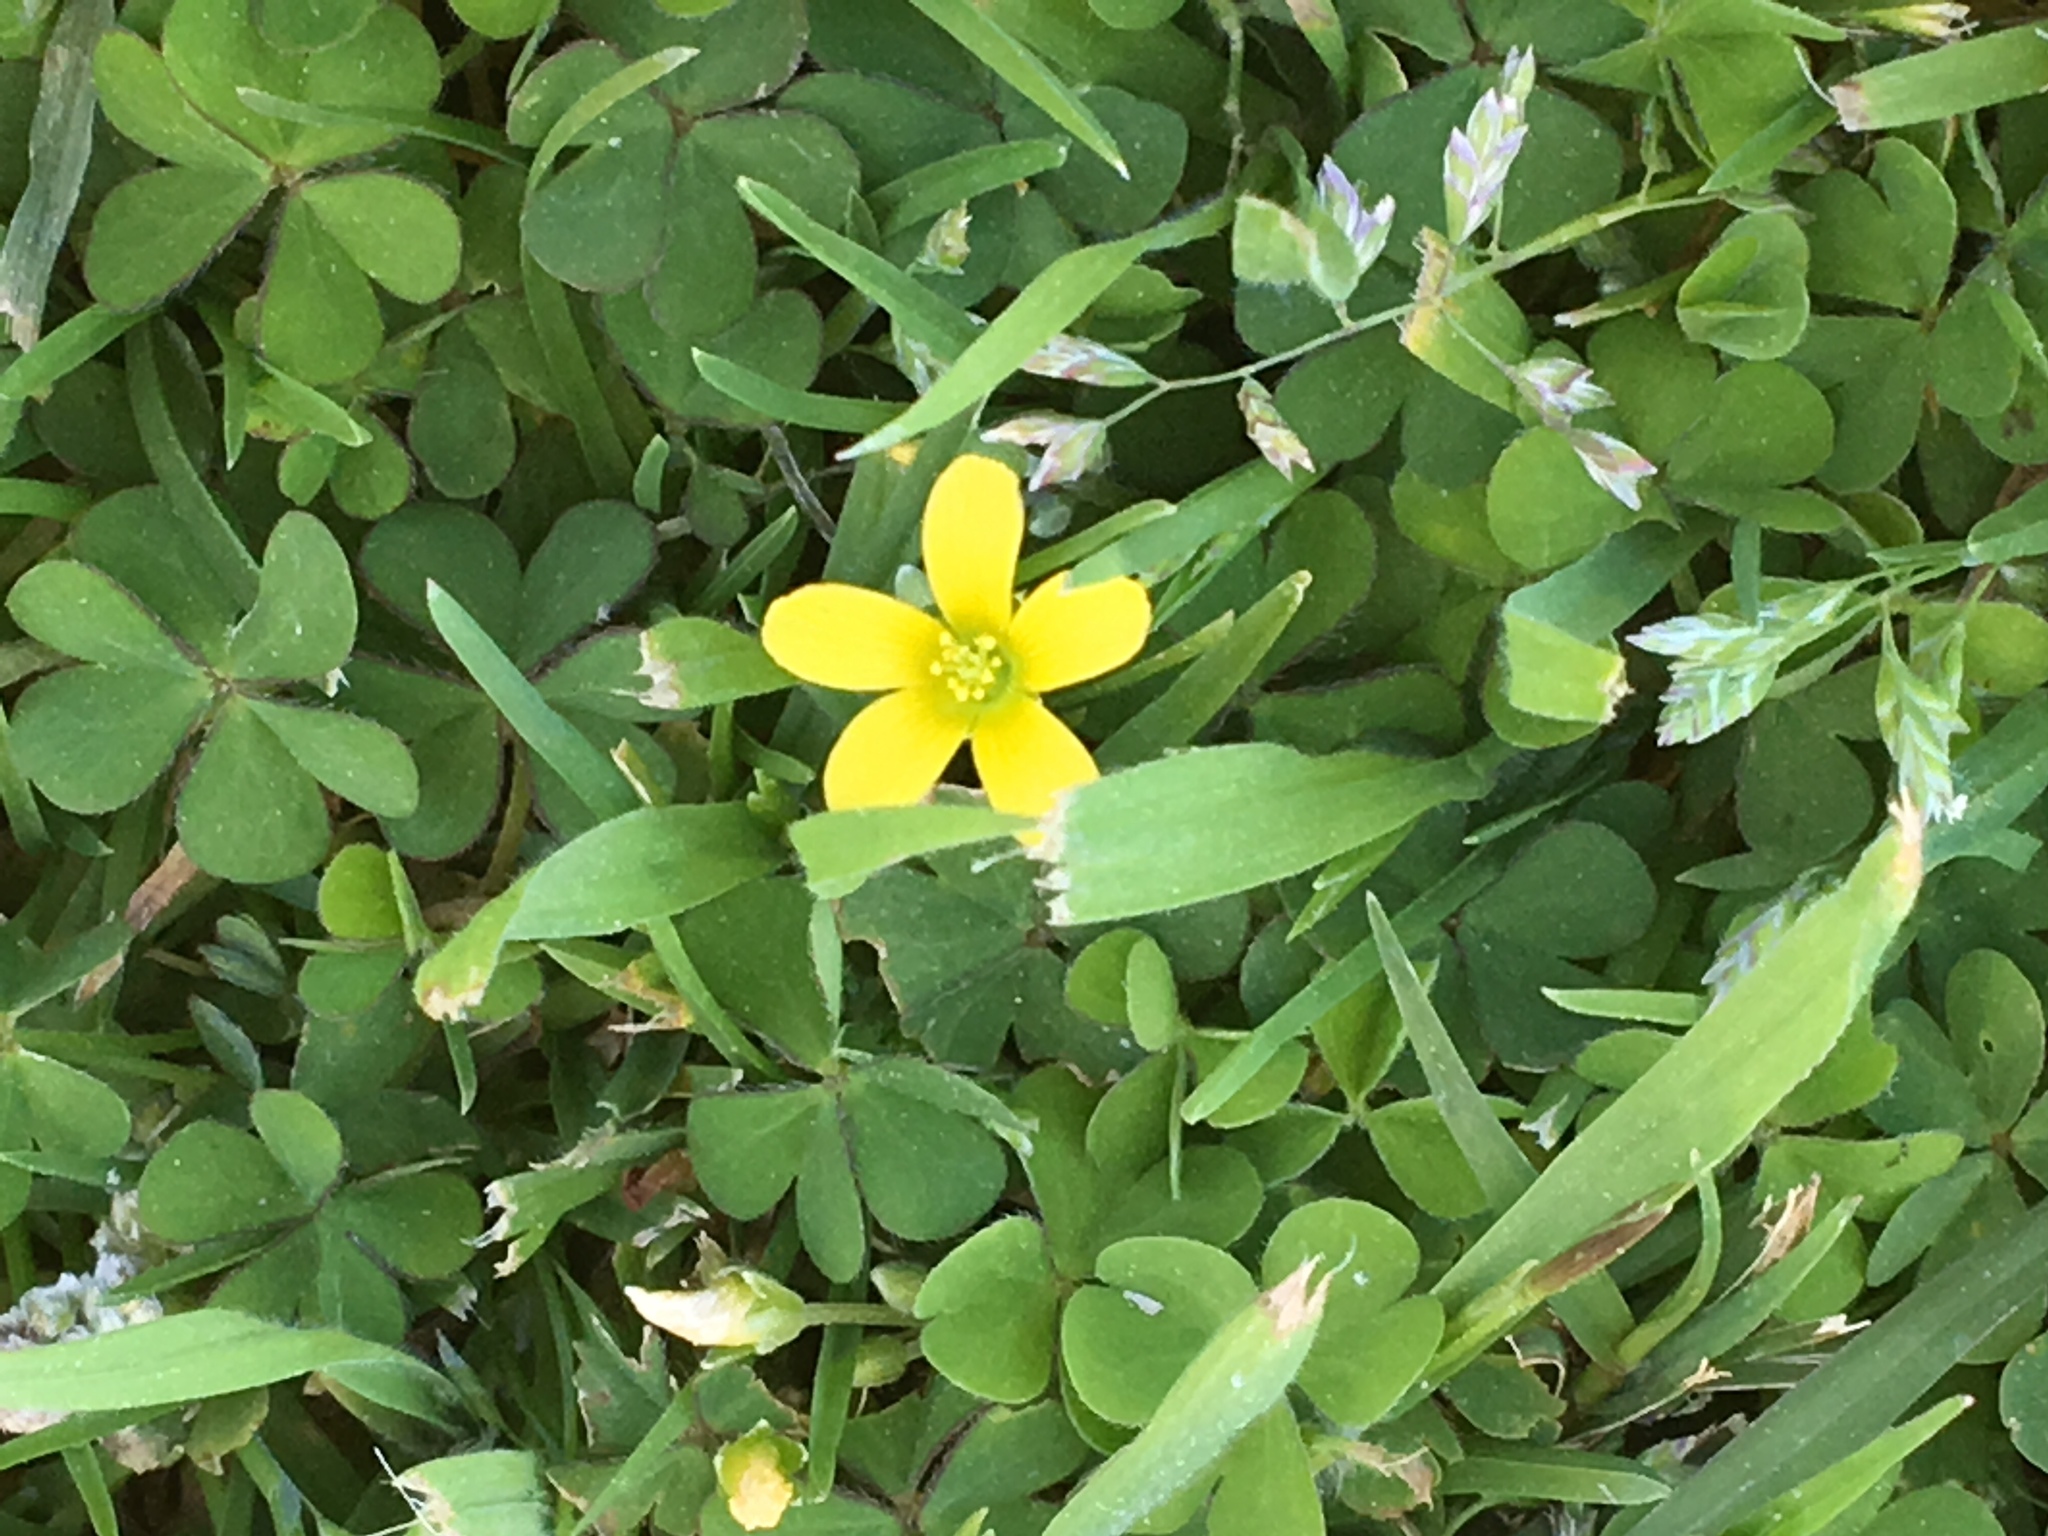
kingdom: Plantae
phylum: Tracheophyta
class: Magnoliopsida
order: Oxalidales
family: Oxalidaceae
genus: Oxalis
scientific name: Oxalis corniculata
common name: Procumbent yellow-sorrel
